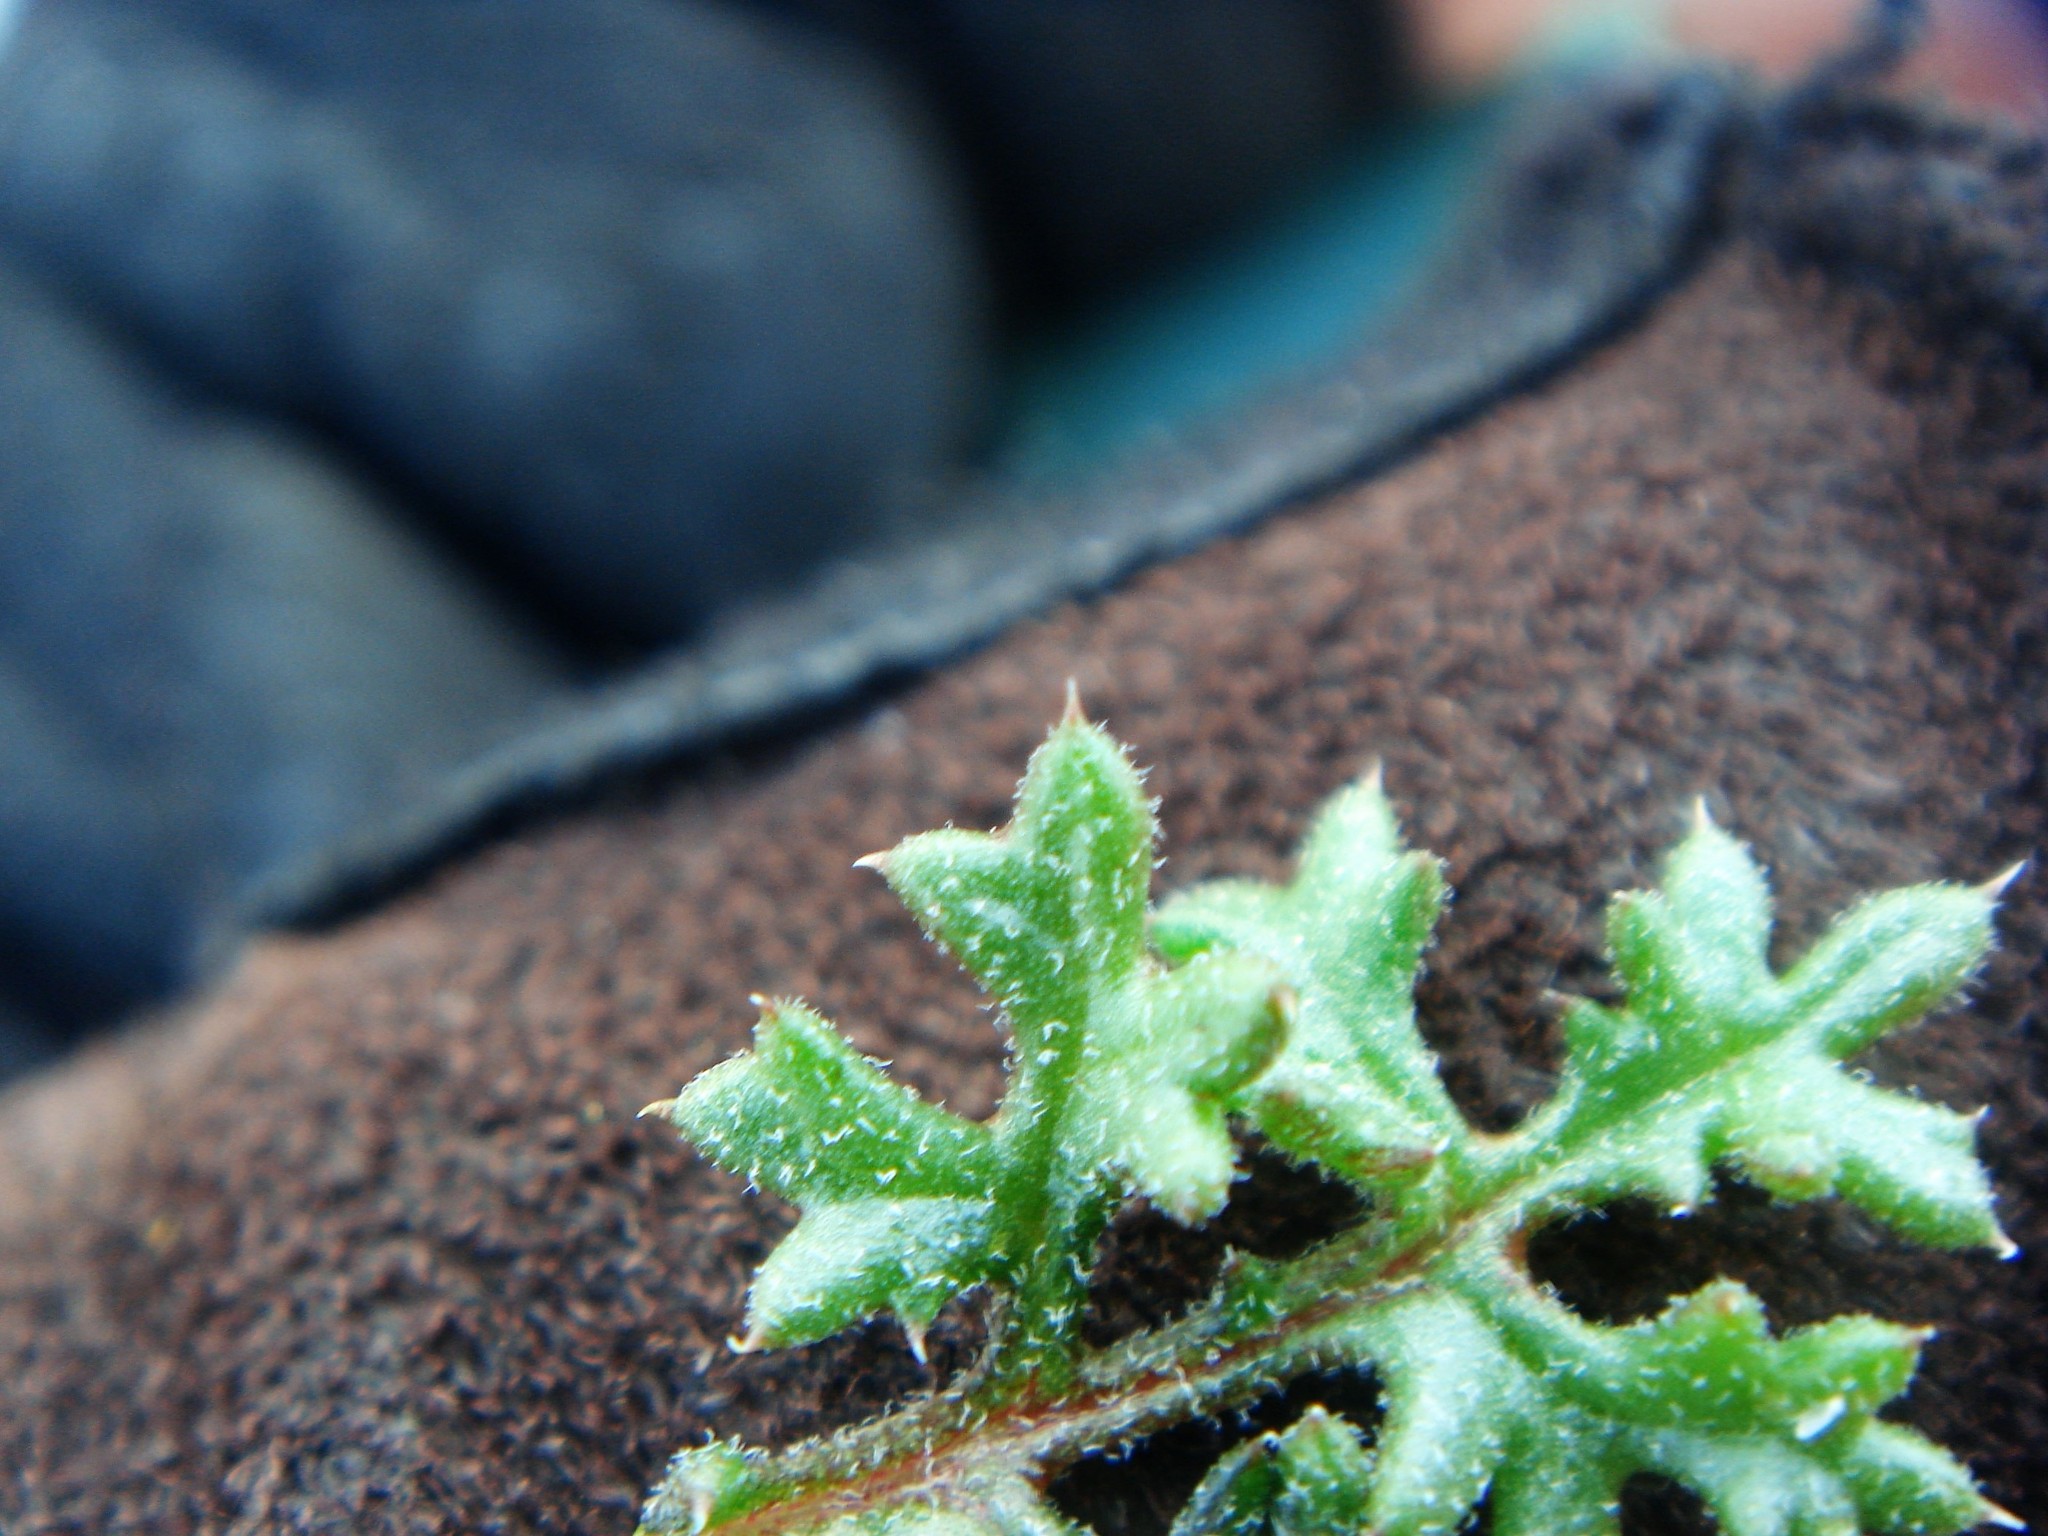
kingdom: Plantae
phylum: Tracheophyta
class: Magnoliopsida
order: Ericales
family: Polemoniaceae
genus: Gilia
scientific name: Gilia stellata
